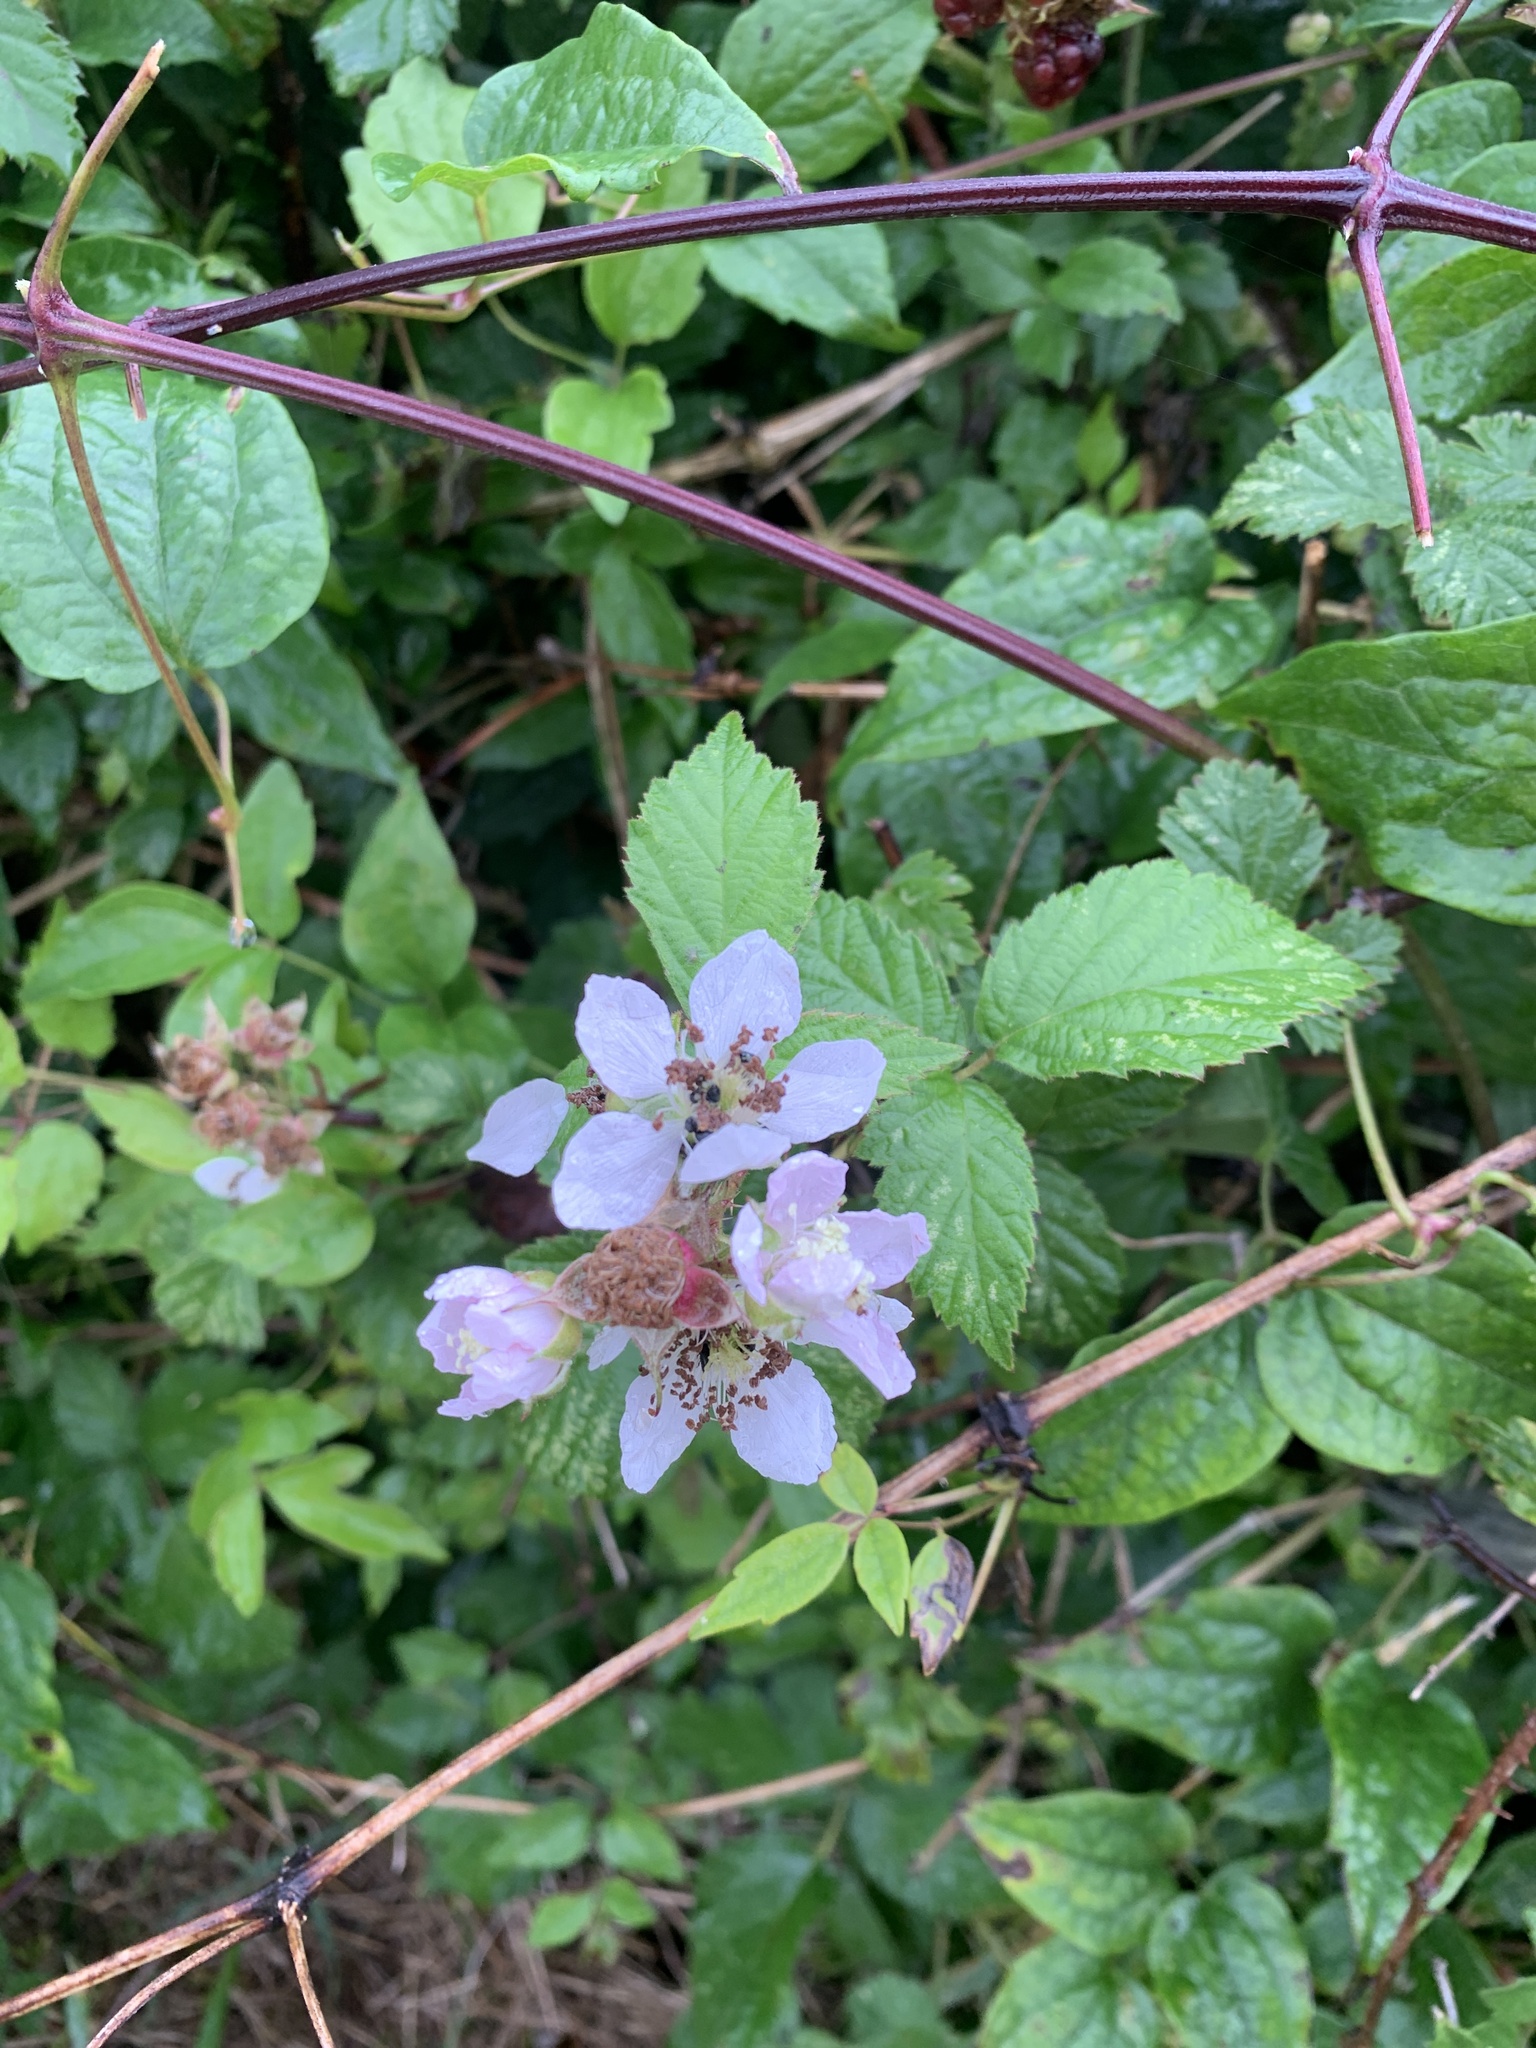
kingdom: Plantae
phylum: Tracheophyta
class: Magnoliopsida
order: Rosales
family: Rosaceae
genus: Rubus
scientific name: Rubus fruticosus
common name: Blackberry, bramble
